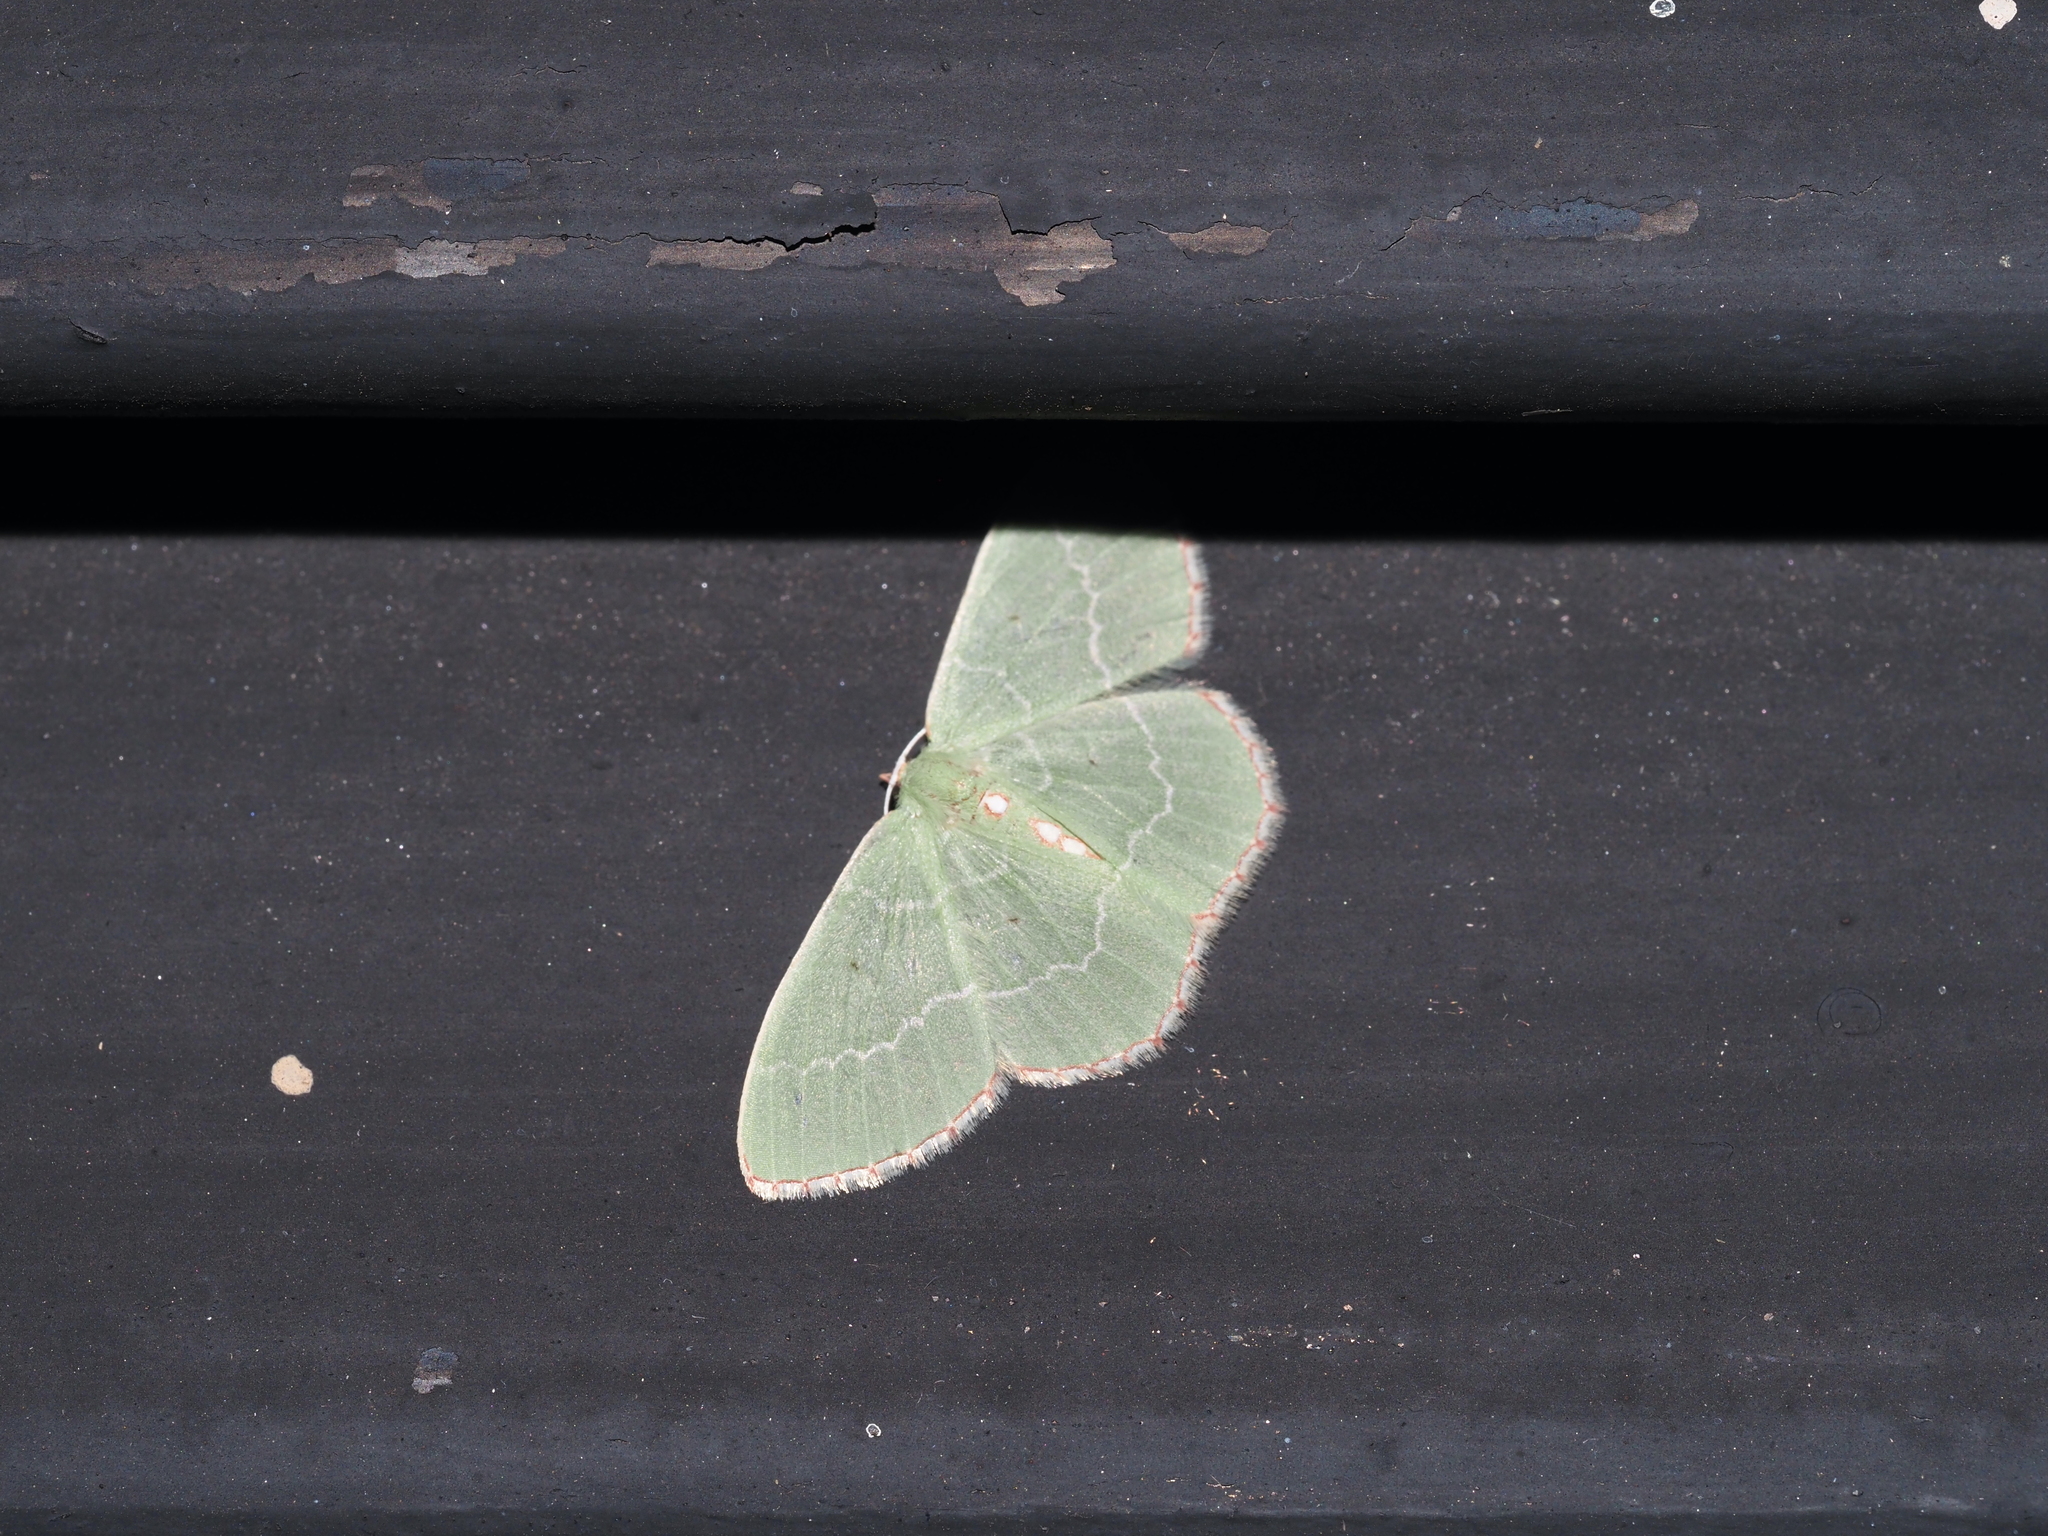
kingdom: Animalia
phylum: Arthropoda
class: Insecta
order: Lepidoptera
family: Geometridae
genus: Nemoria
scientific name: Nemoria lixaria
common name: Red-bordered emerald
